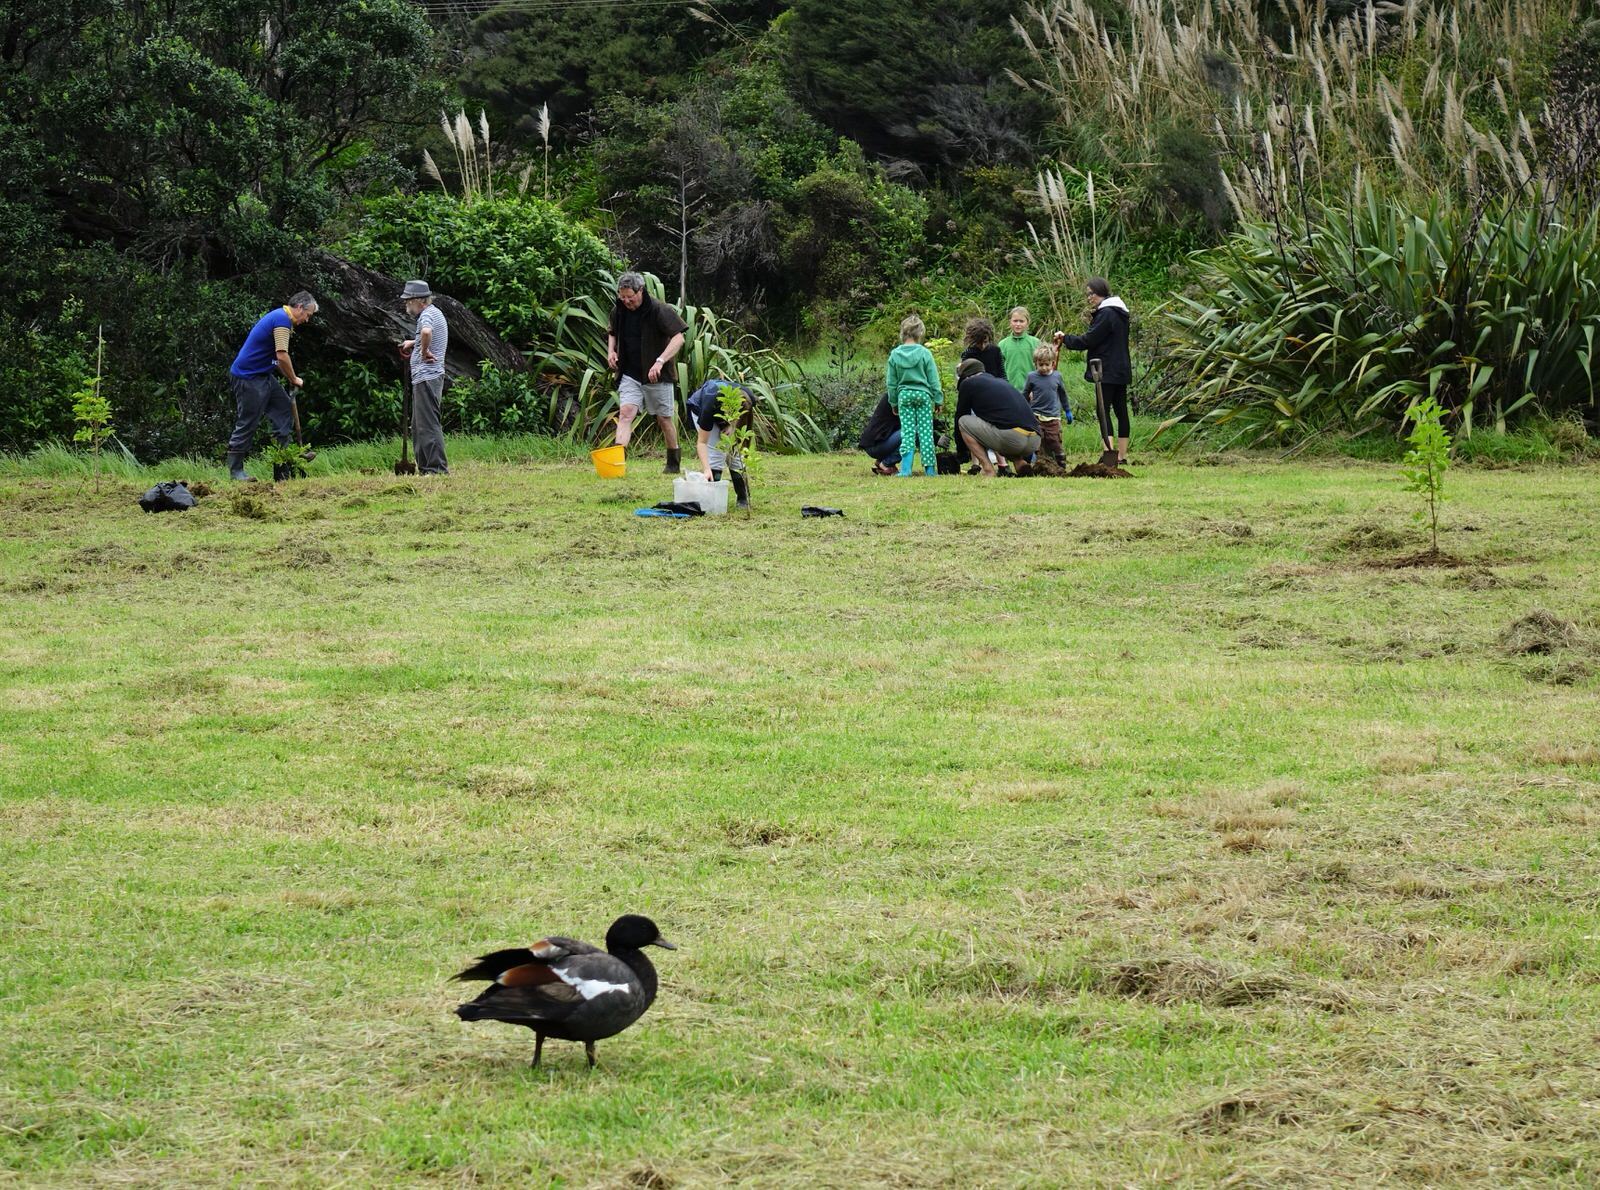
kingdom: Animalia
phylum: Chordata
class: Aves
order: Anseriformes
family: Anatidae
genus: Tadorna
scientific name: Tadorna variegata
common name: Paradise shelduck
